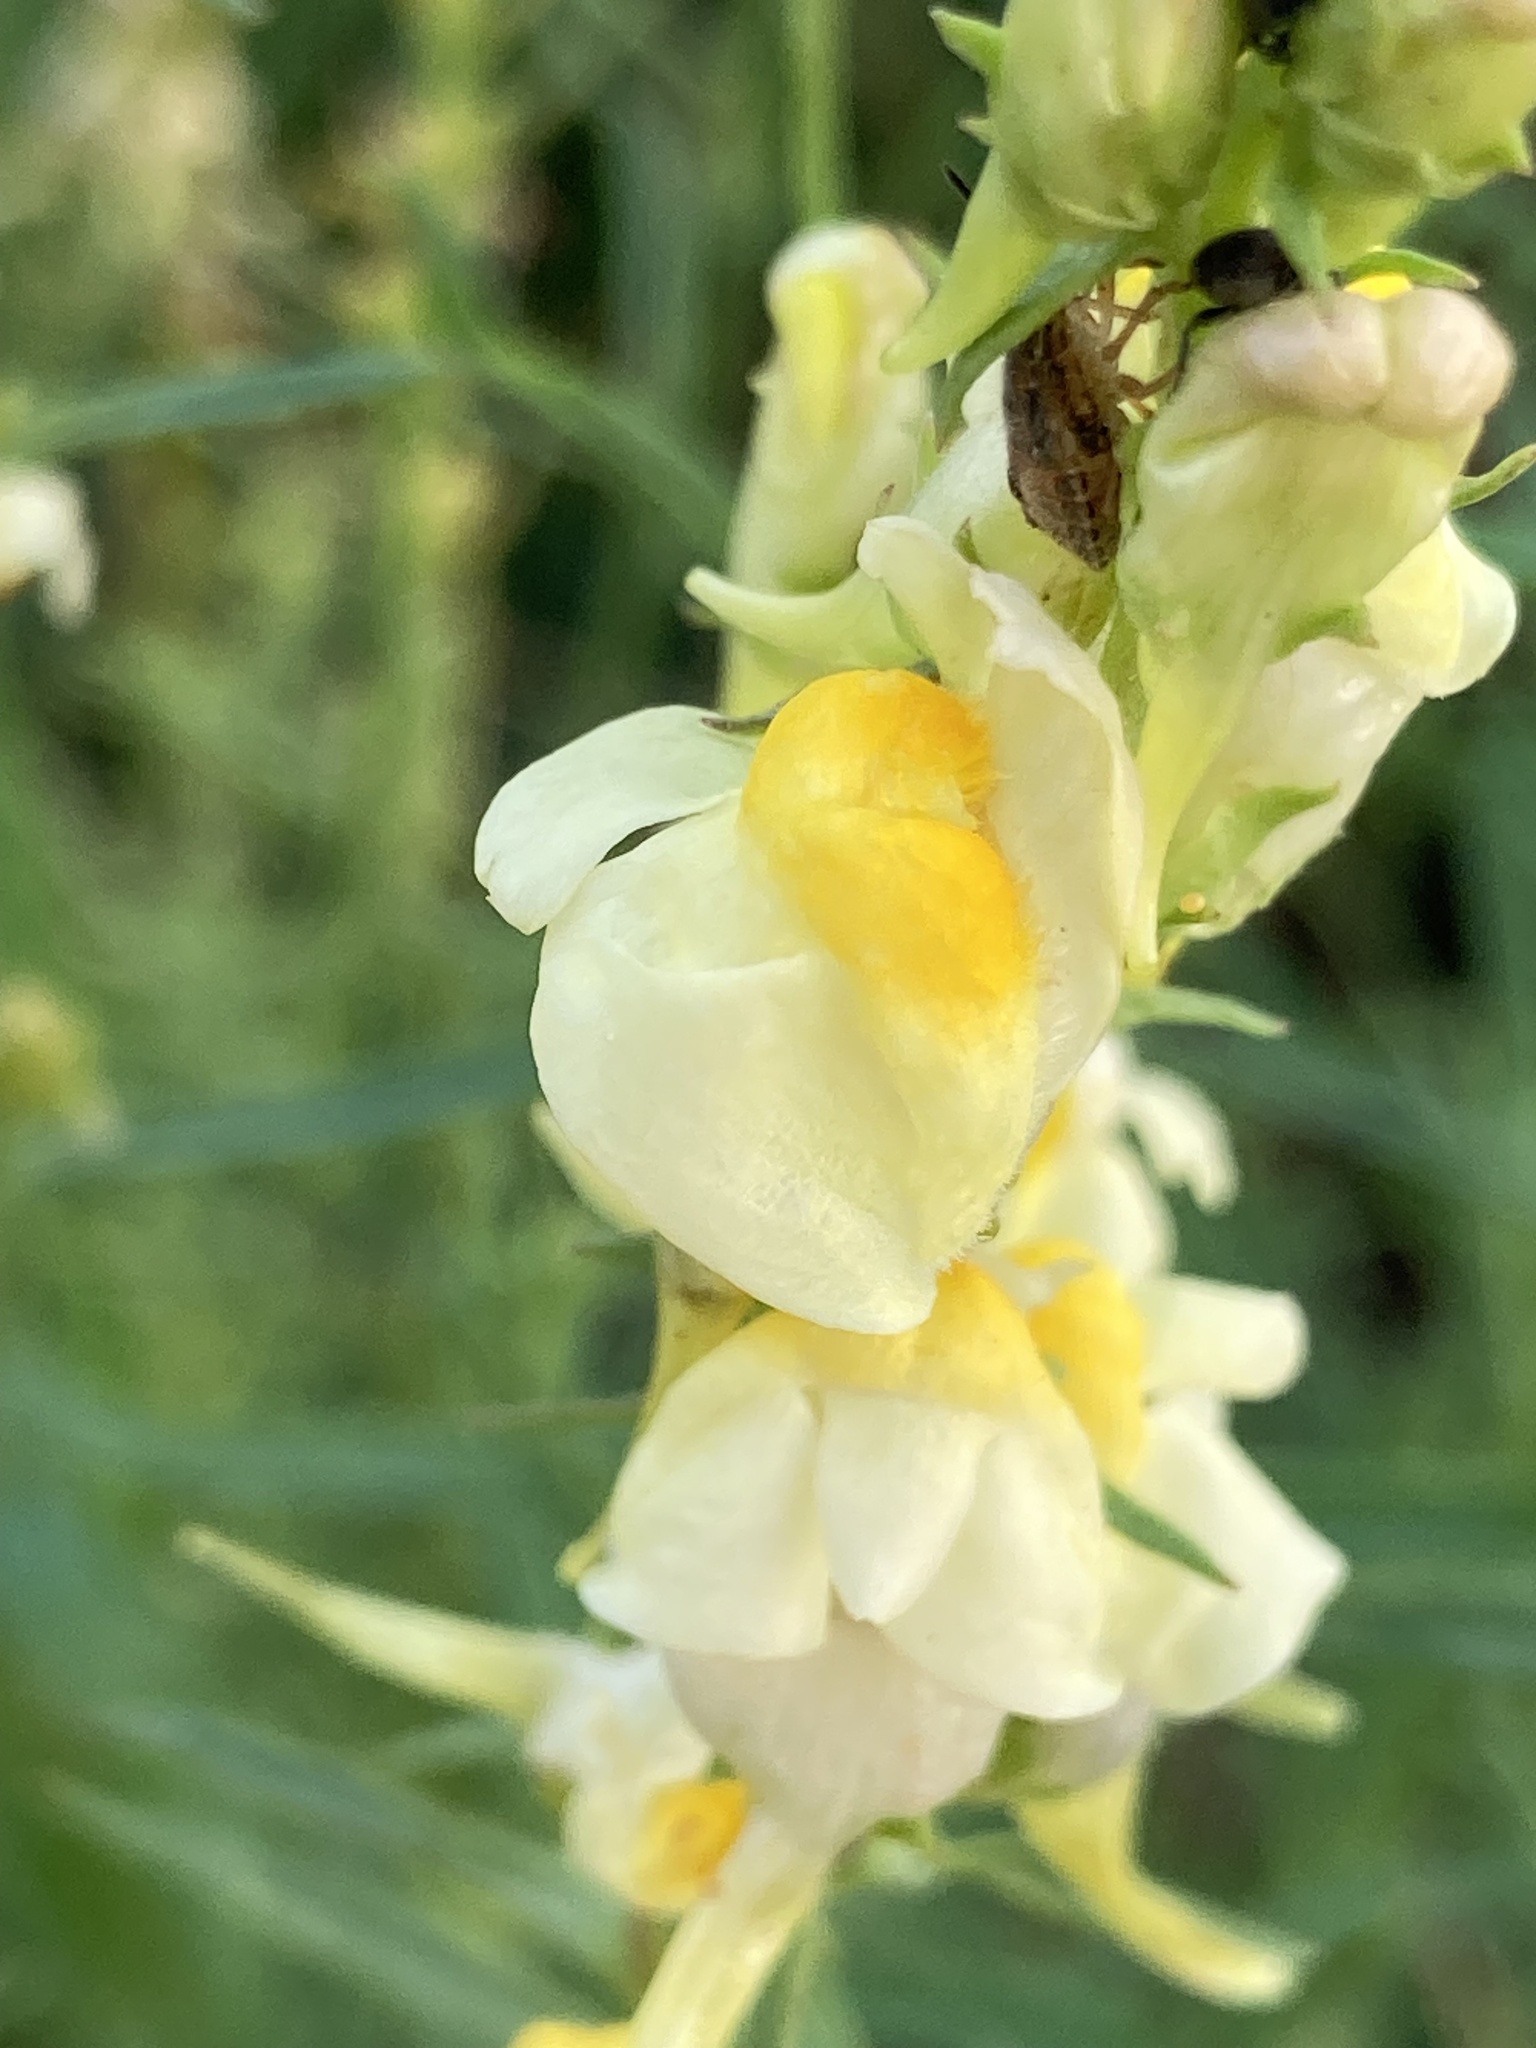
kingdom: Plantae
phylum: Tracheophyta
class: Magnoliopsida
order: Lamiales
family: Plantaginaceae
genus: Linaria
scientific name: Linaria vulgaris
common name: Butter and eggs
